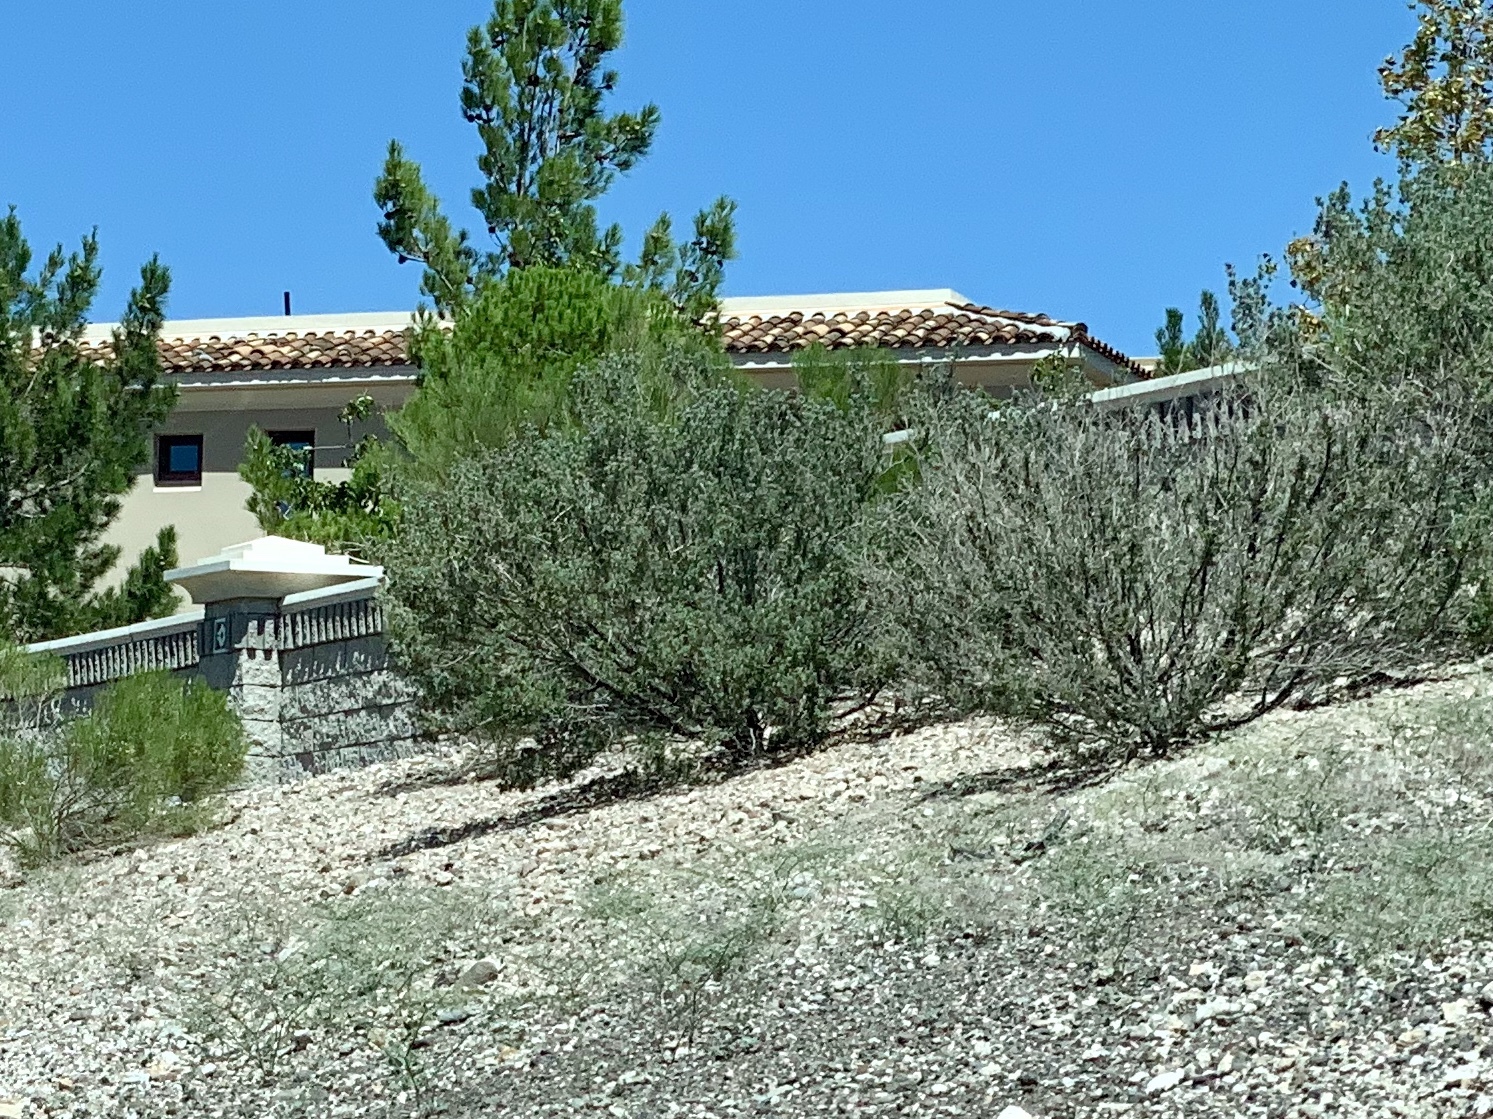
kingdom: Plantae
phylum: Tracheophyta
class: Magnoliopsida
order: Zygophyllales
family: Zygophyllaceae
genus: Larrea
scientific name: Larrea tridentata
